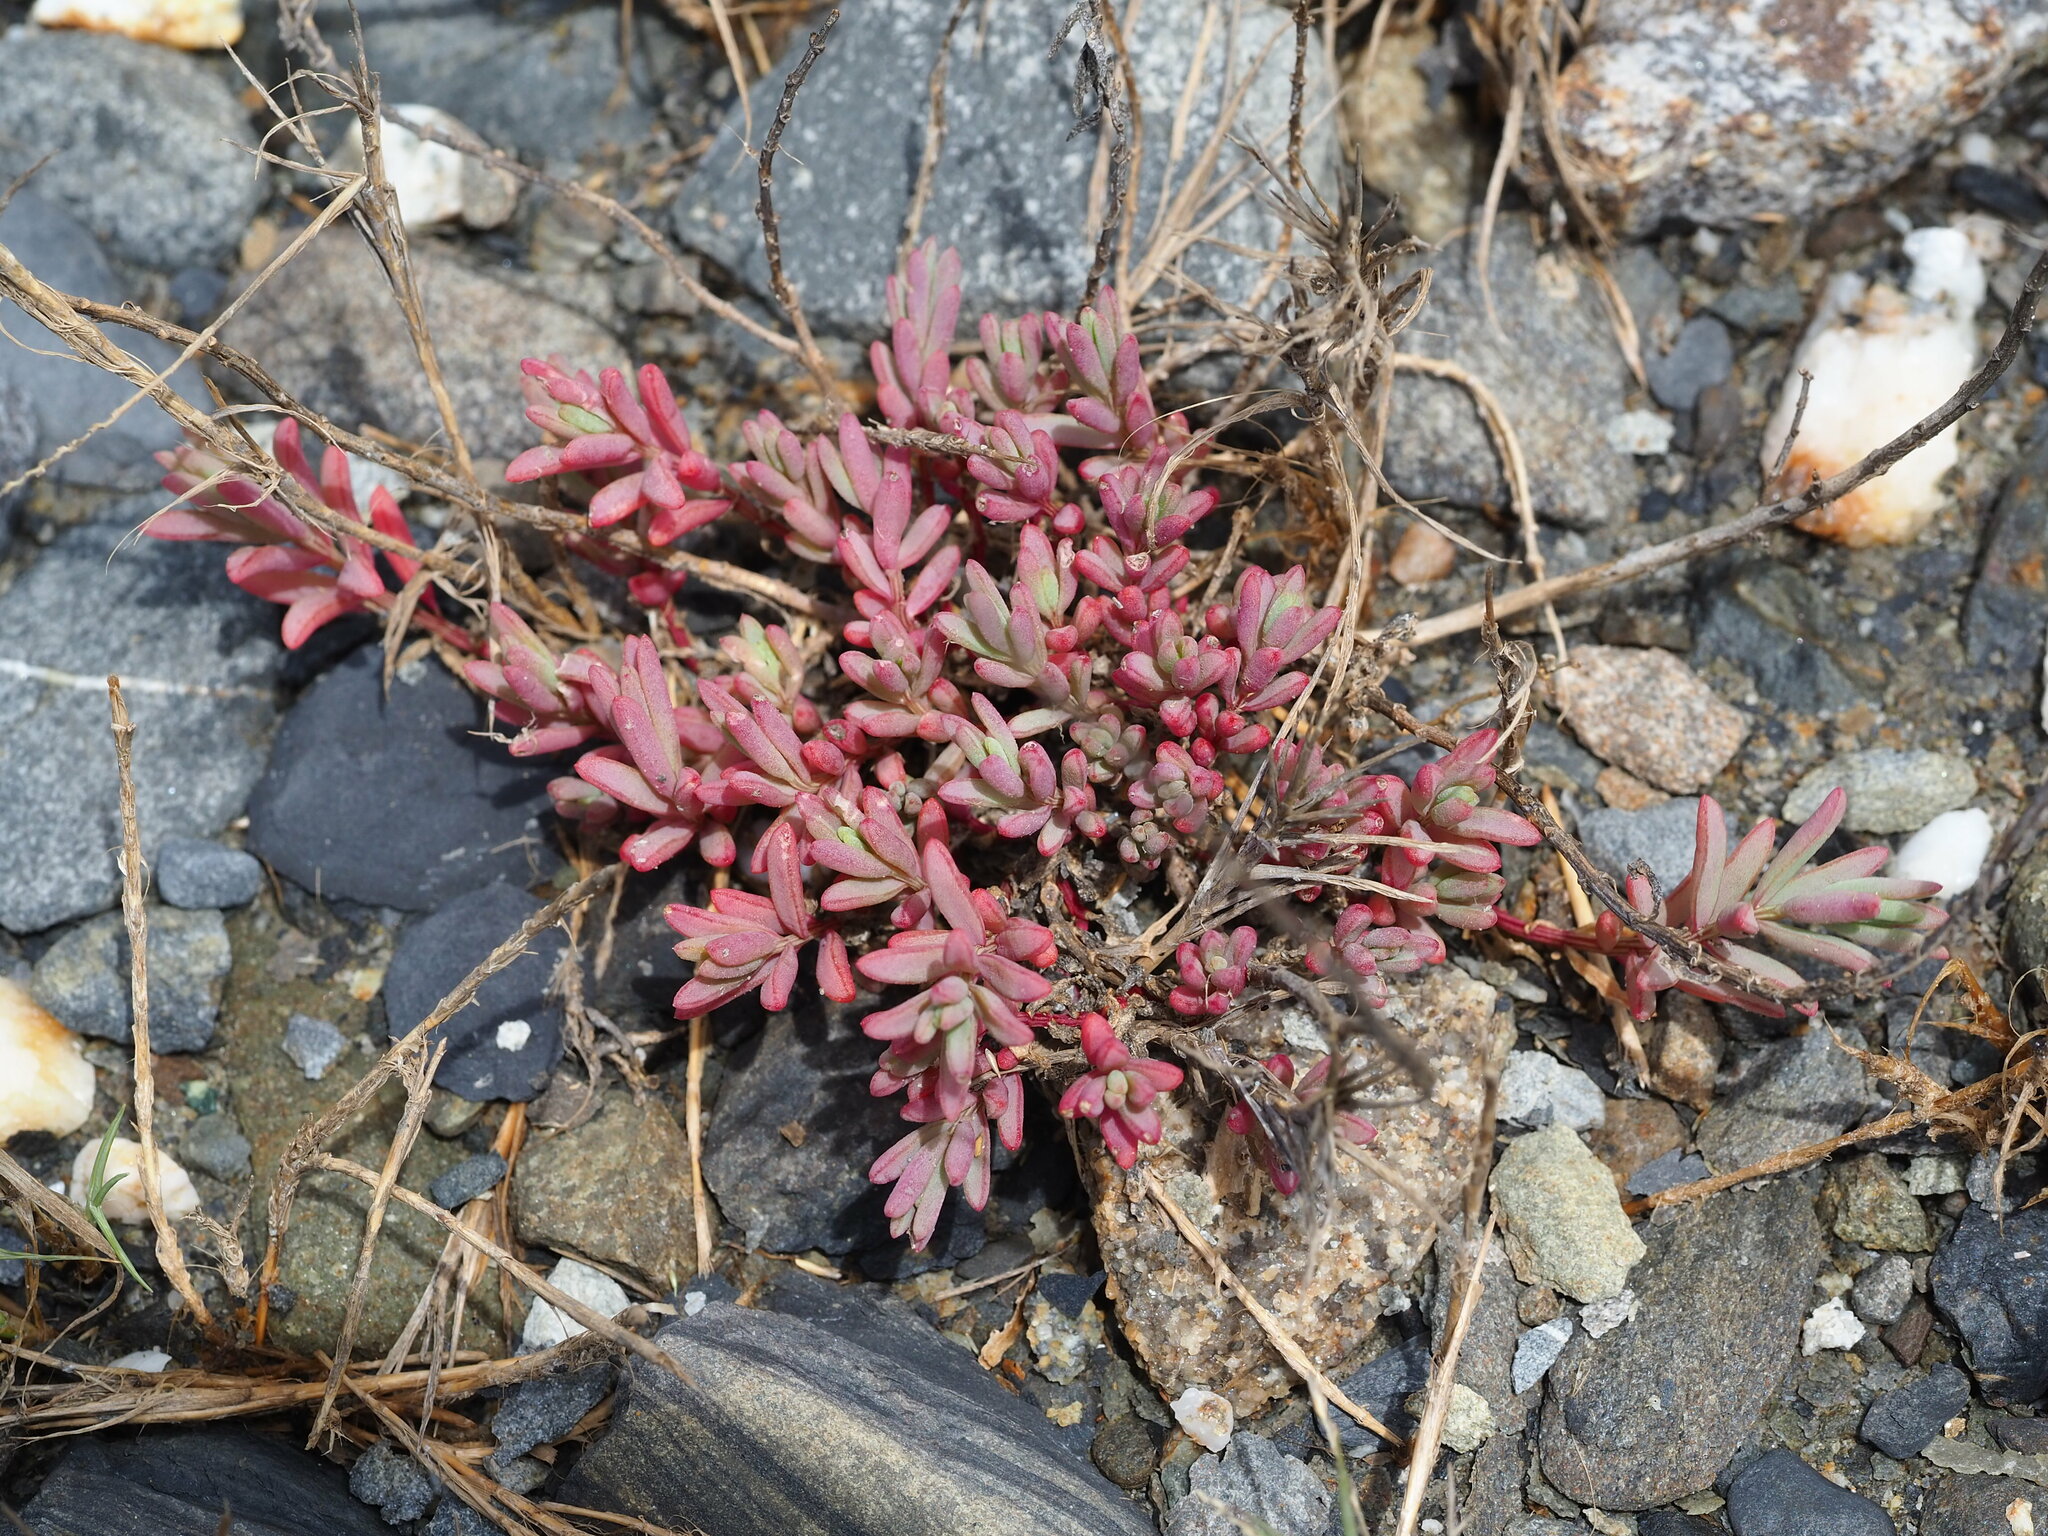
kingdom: Plantae
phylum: Tracheophyta
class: Magnoliopsida
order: Caryophyllales
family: Amaranthaceae
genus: Suaeda
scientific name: Suaeda maritima
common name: Annual sea-blite
